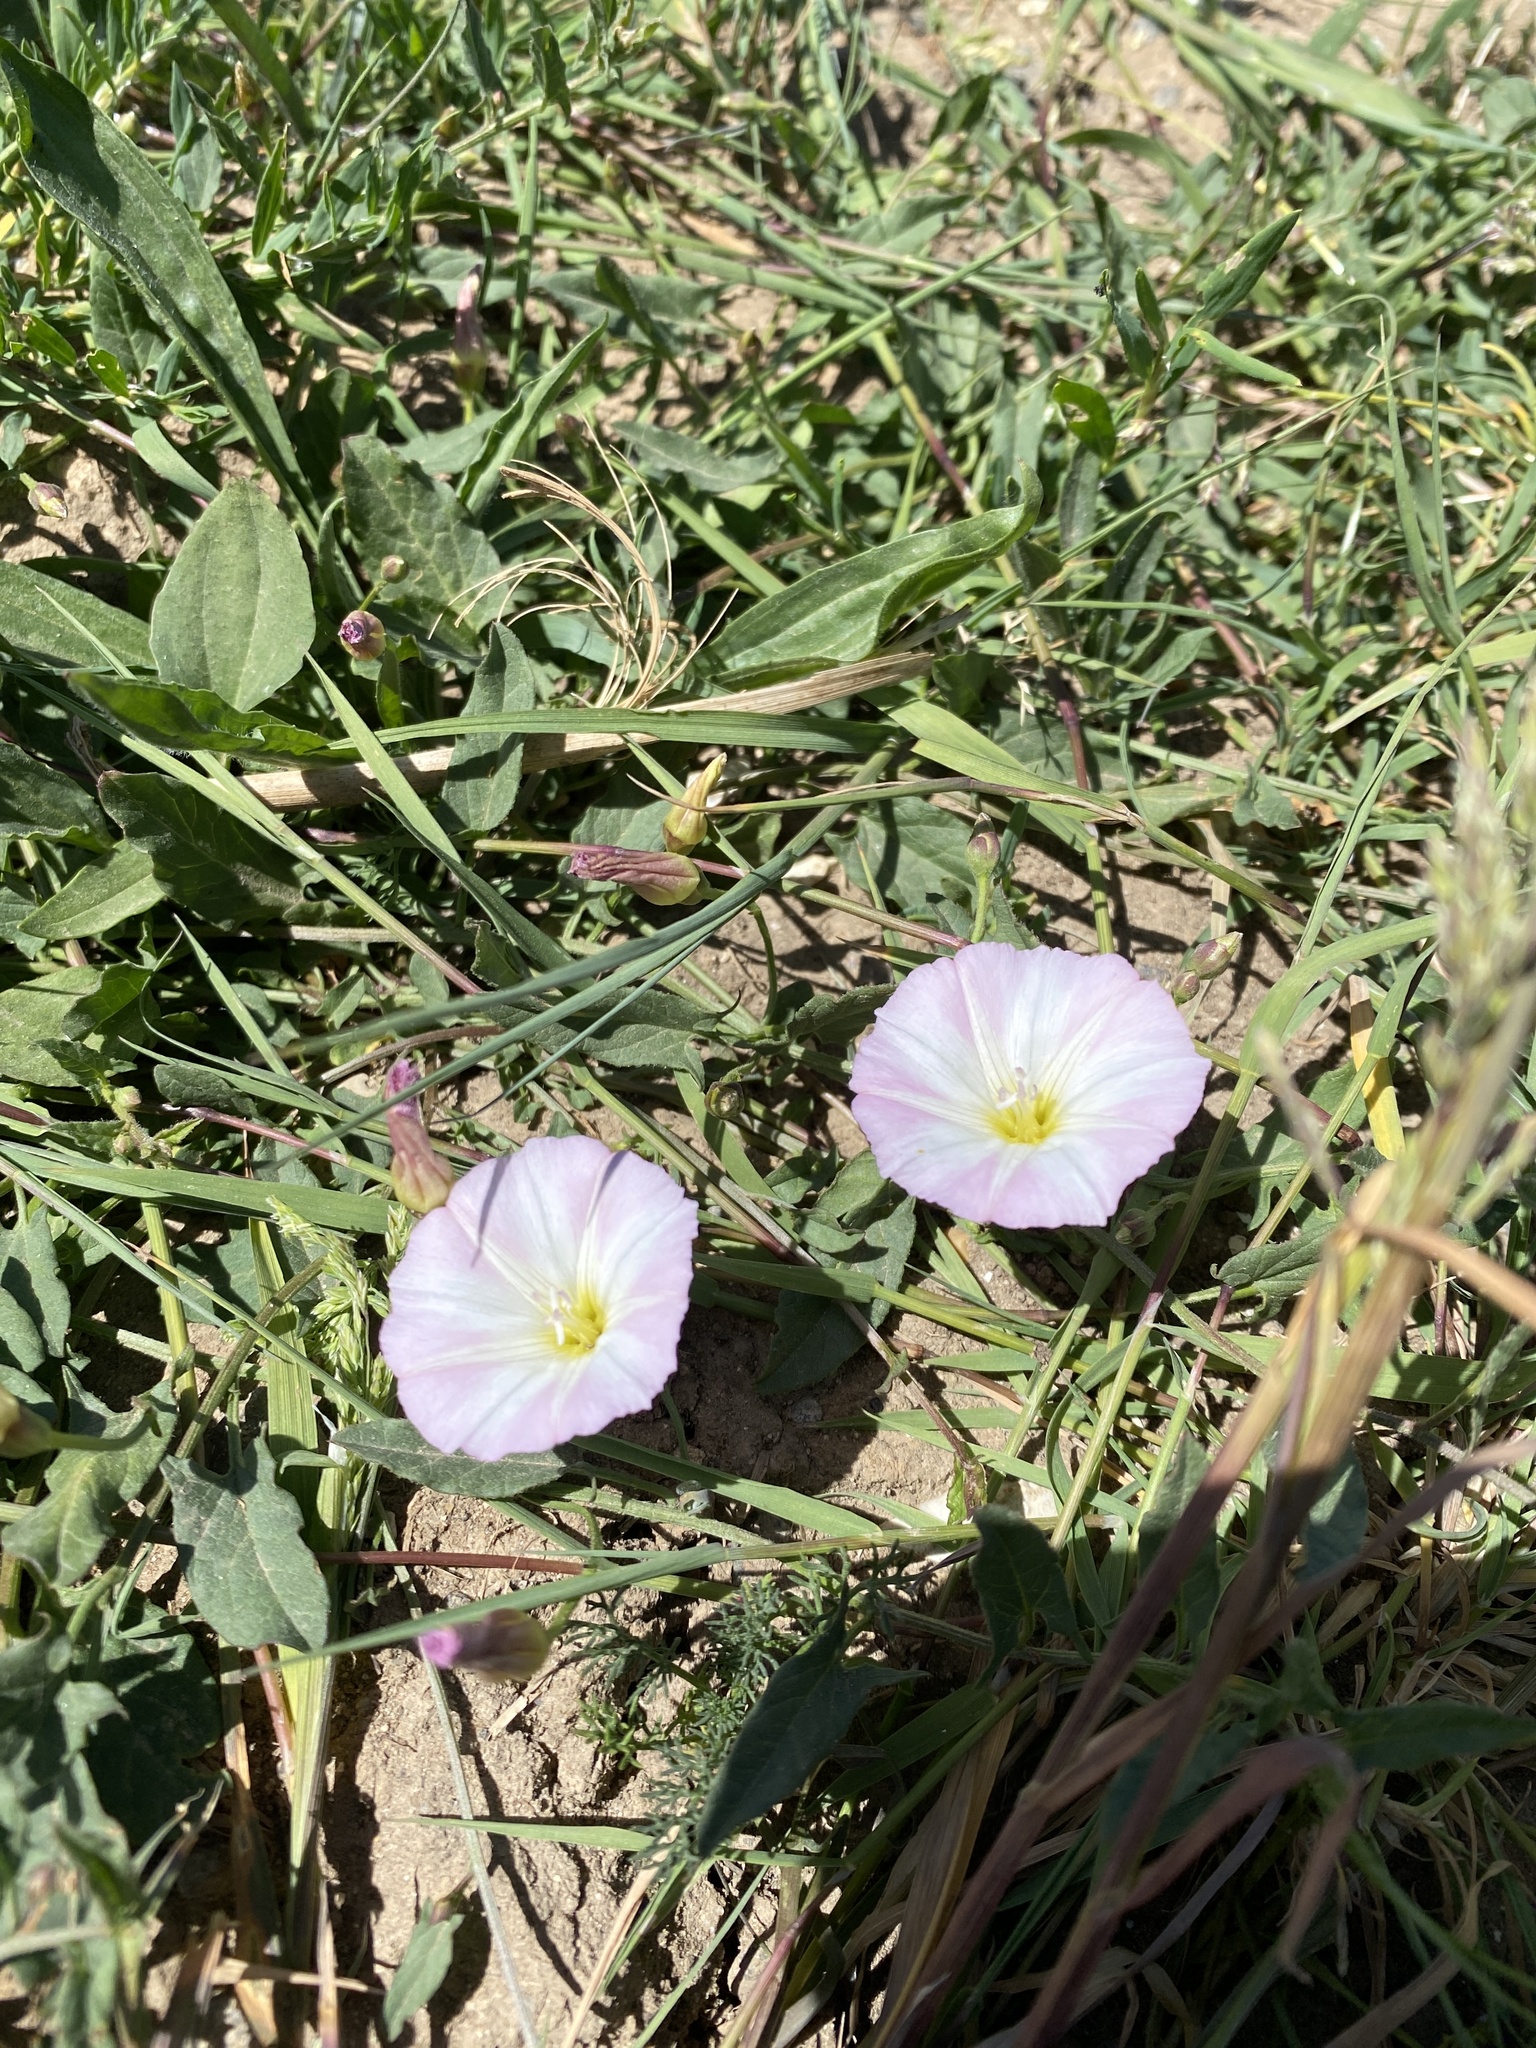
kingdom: Plantae
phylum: Tracheophyta
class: Magnoliopsida
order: Solanales
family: Convolvulaceae
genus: Convolvulus
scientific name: Convolvulus arvensis
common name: Field bindweed
